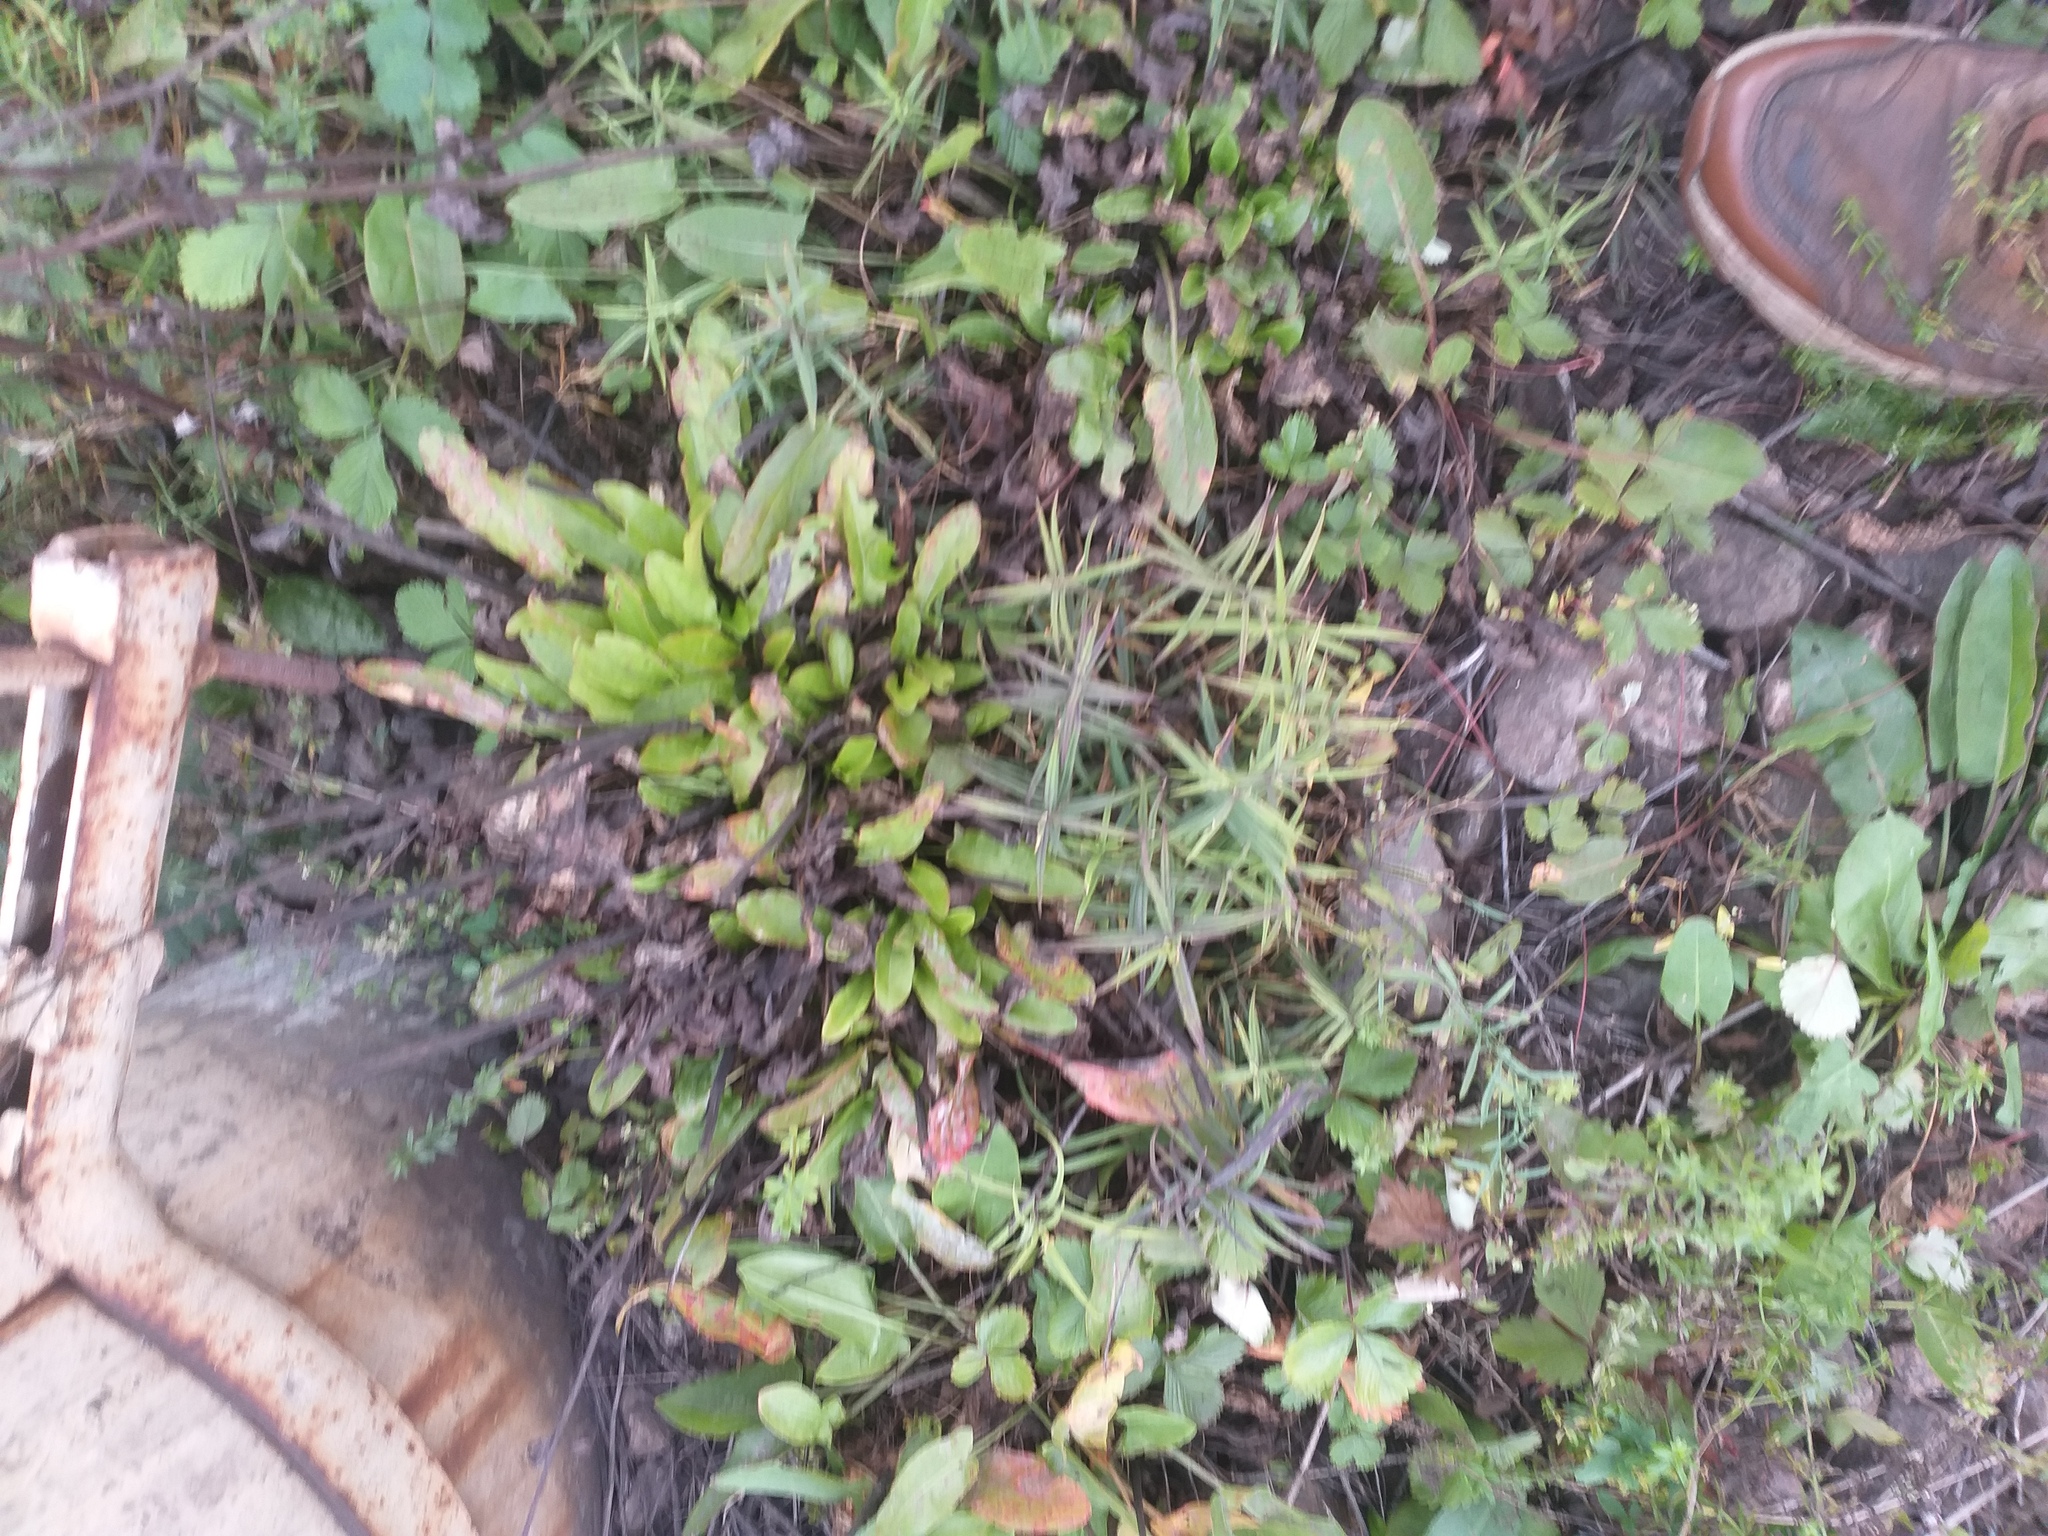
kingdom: Plantae
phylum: Tracheophyta
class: Magnoliopsida
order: Caryophyllales
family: Caryophyllaceae
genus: Rabelera
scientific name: Rabelera holostea
